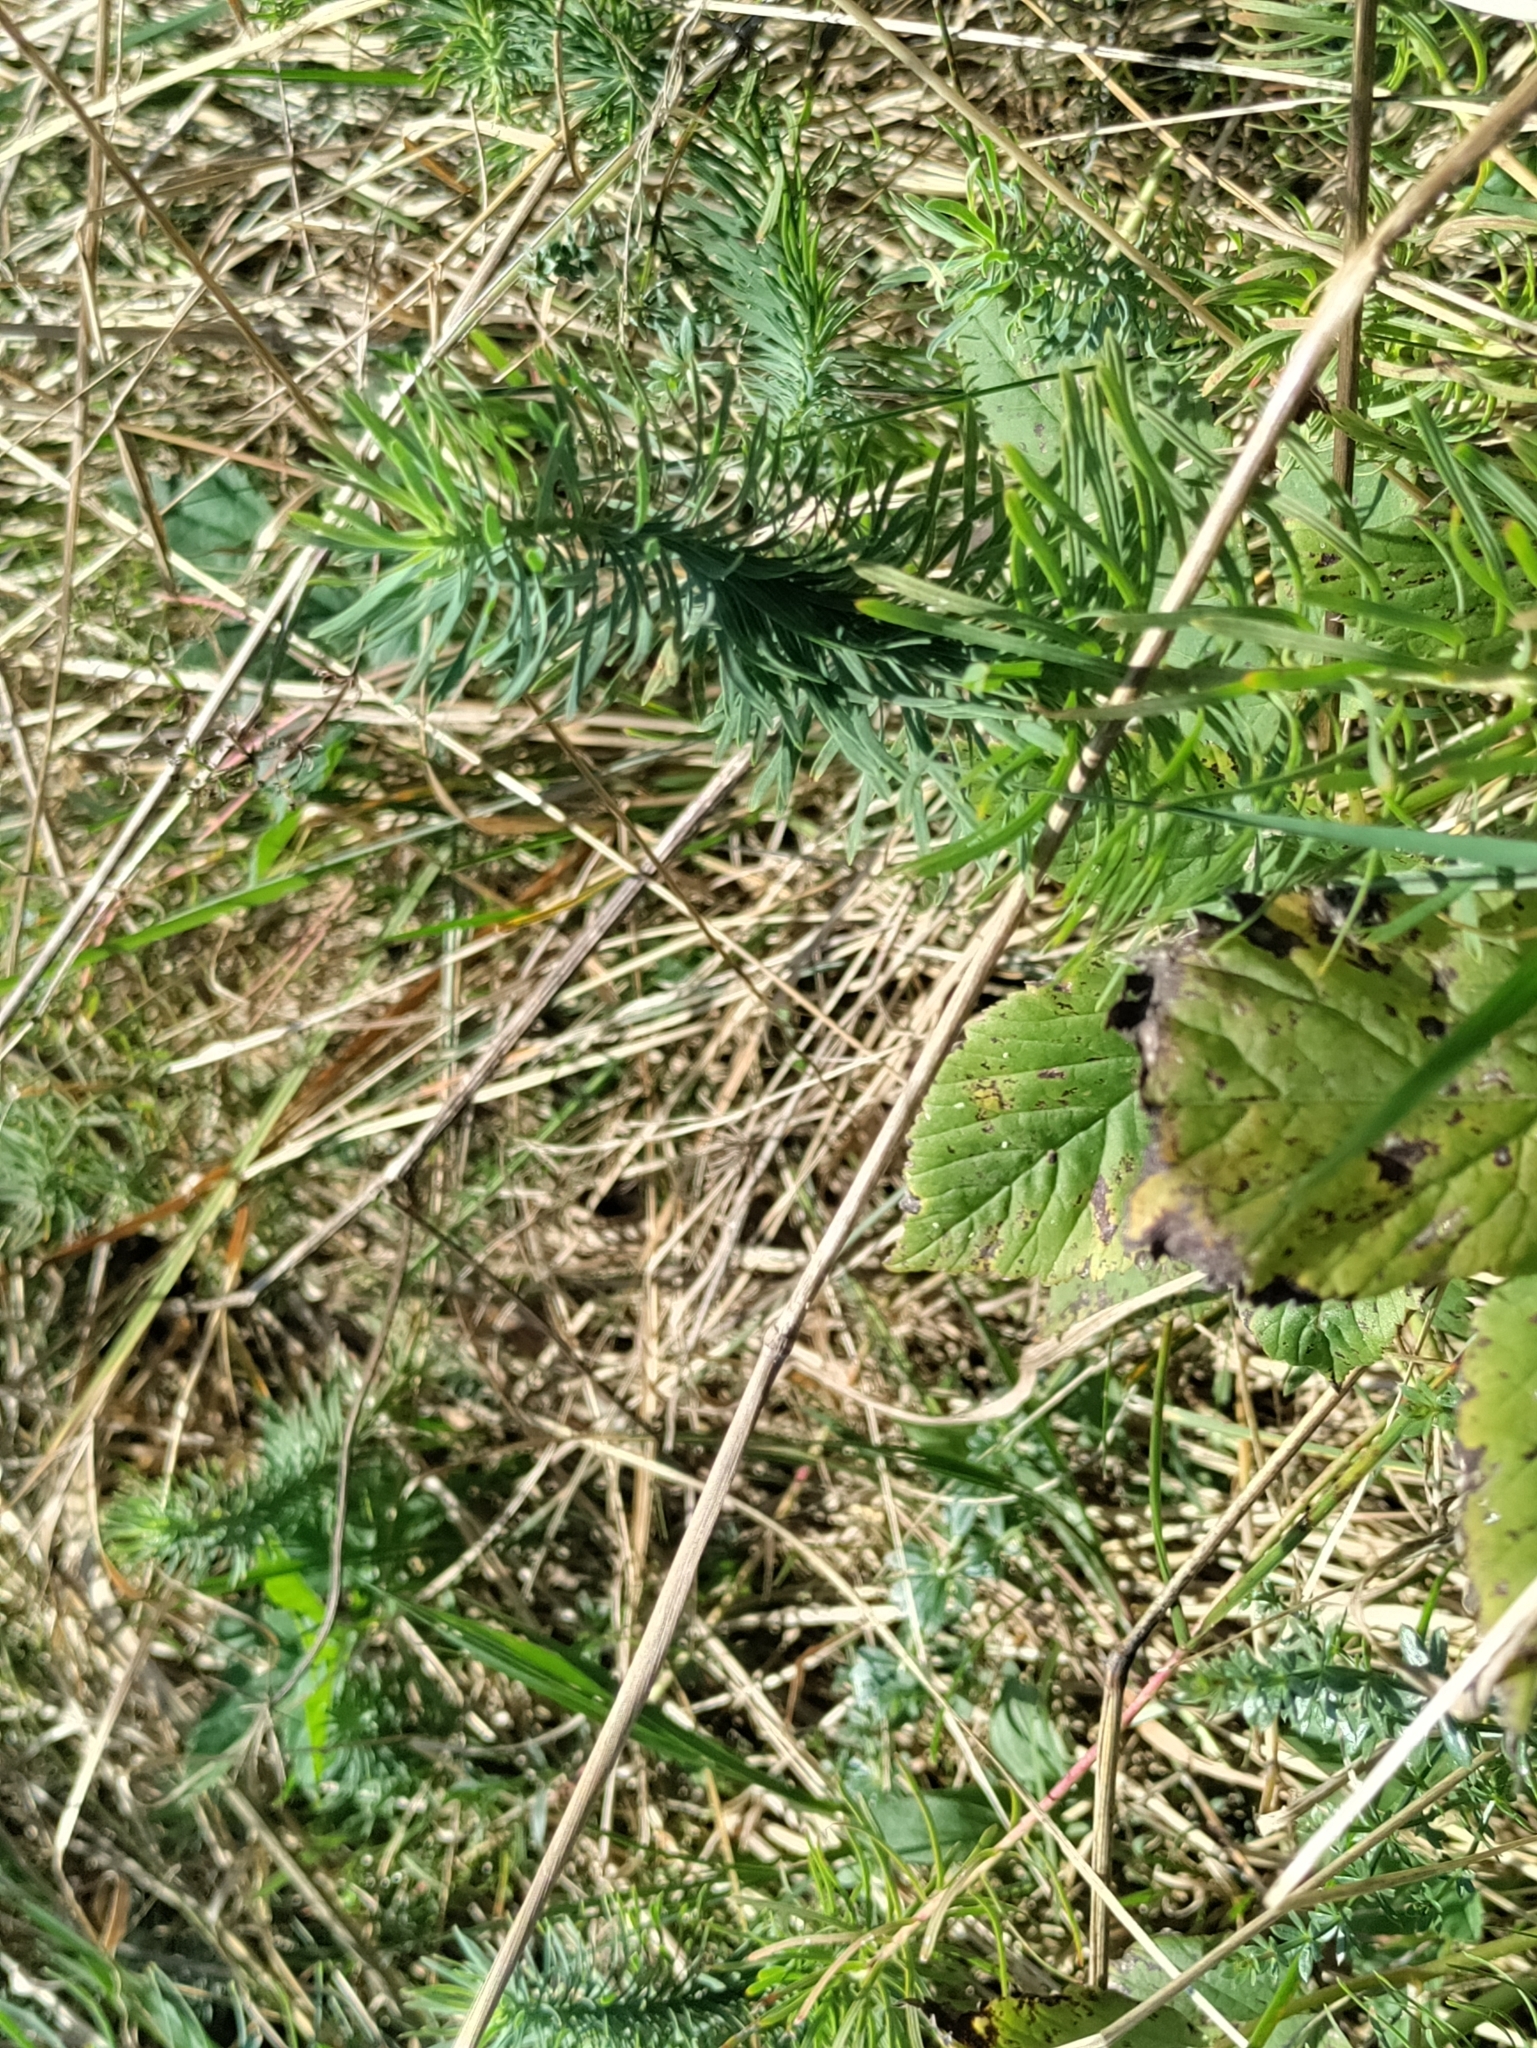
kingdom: Plantae
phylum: Tracheophyta
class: Magnoliopsida
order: Malpighiales
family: Euphorbiaceae
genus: Euphorbia
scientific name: Euphorbia cyparissias
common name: Cypress spurge
